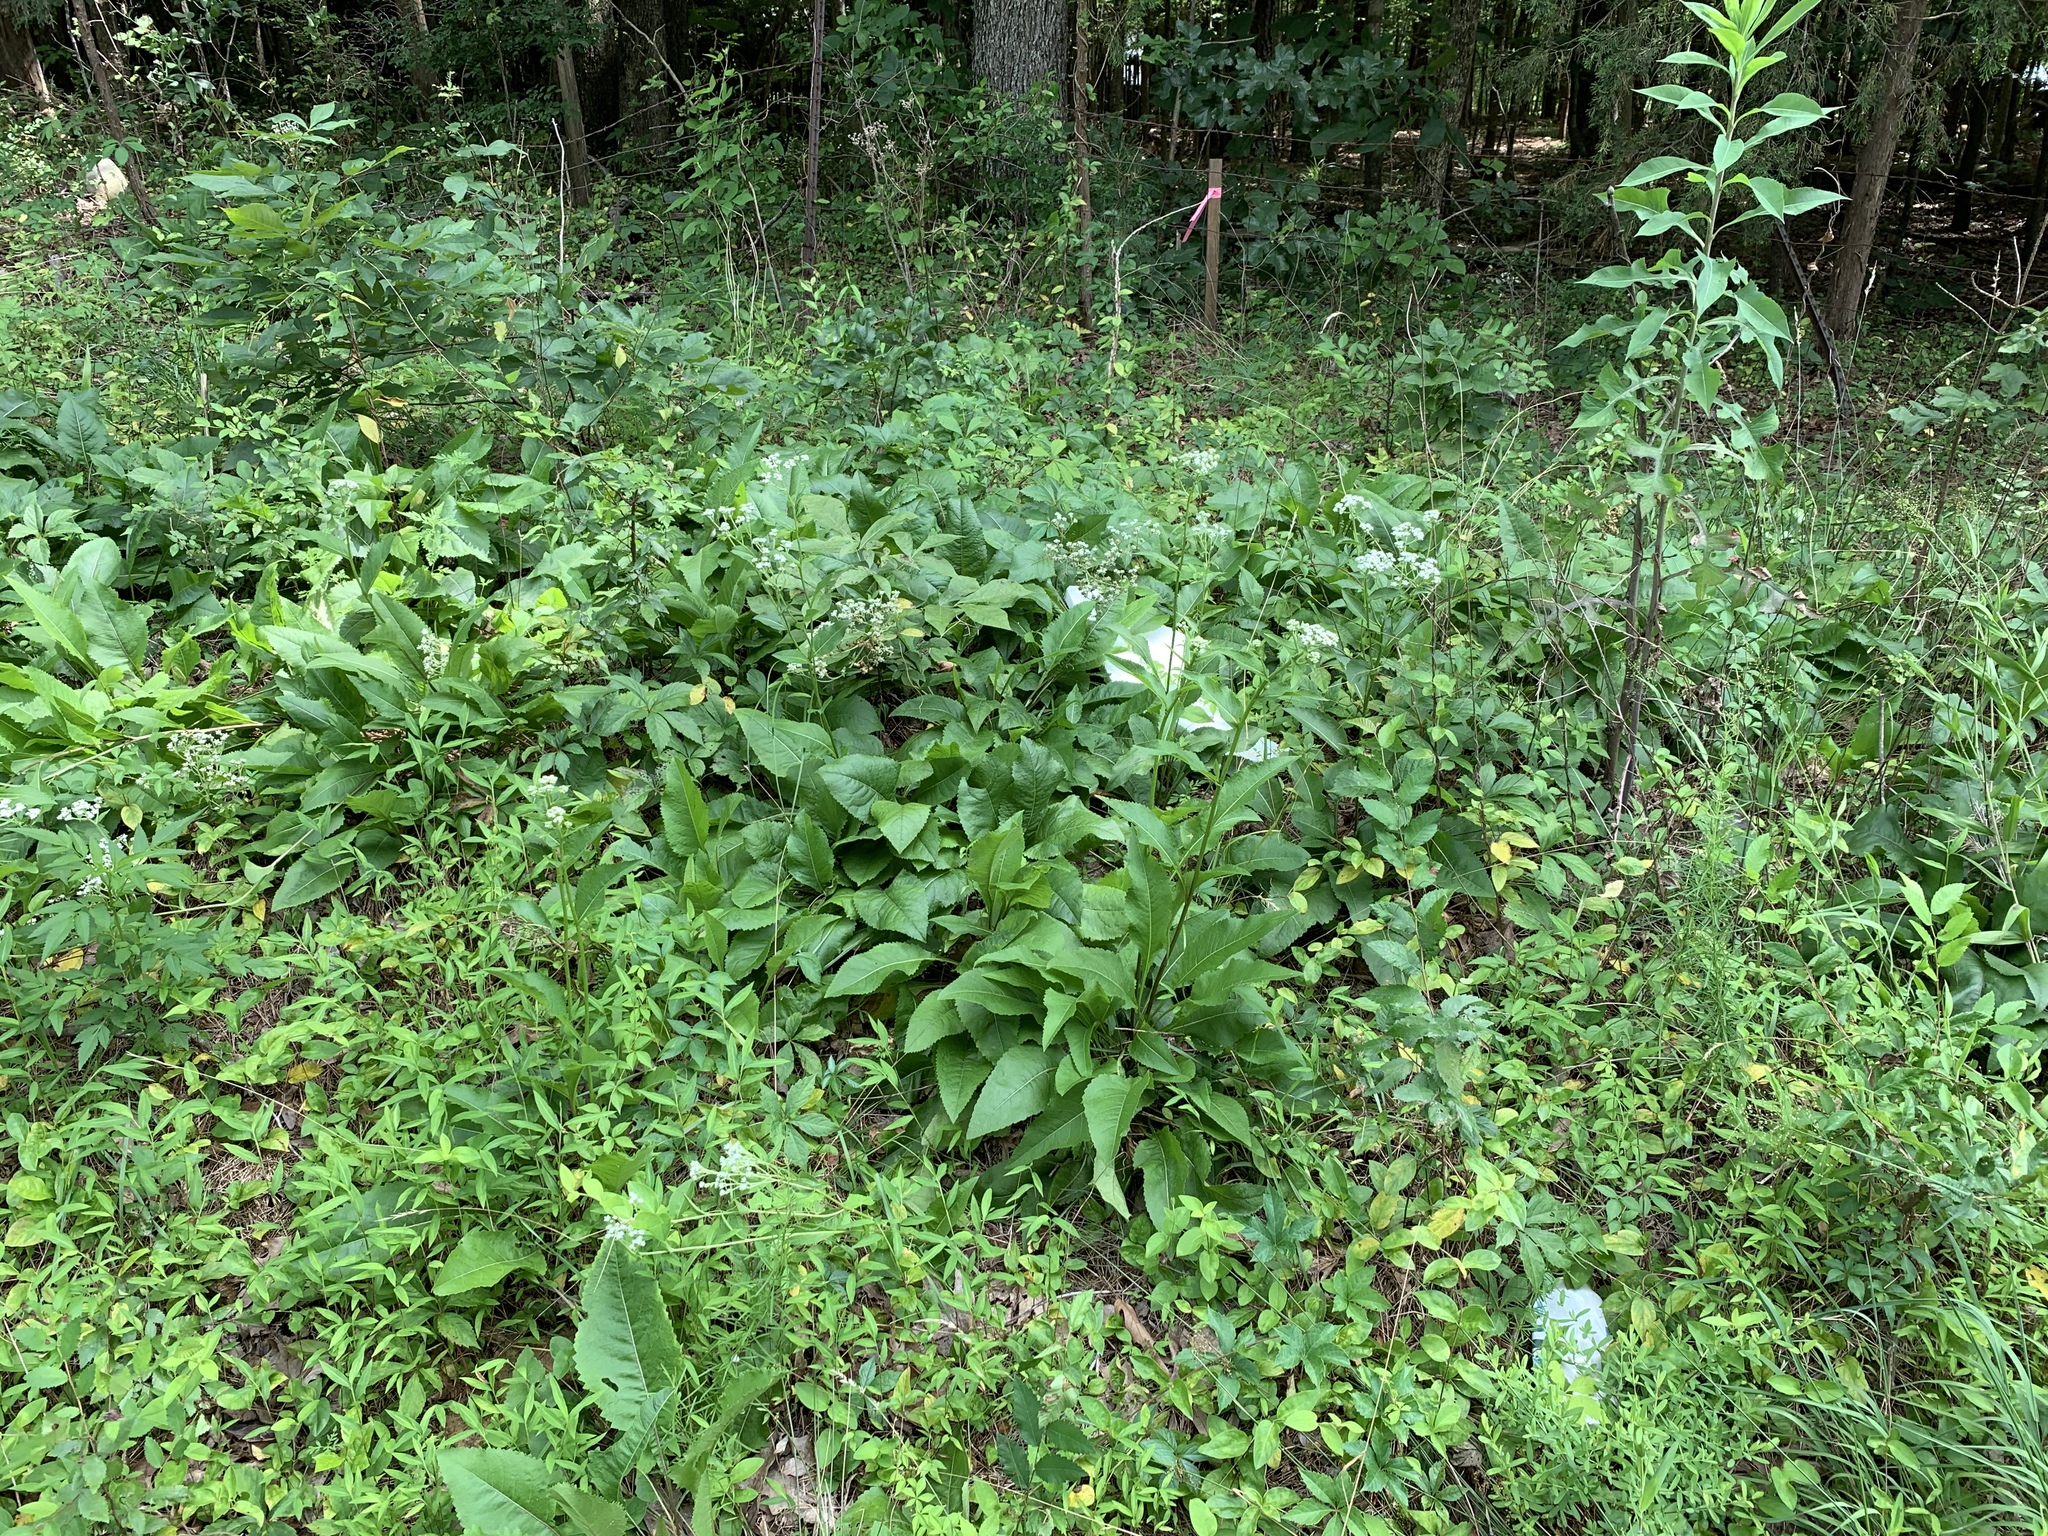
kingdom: Plantae
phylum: Tracheophyta
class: Magnoliopsida
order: Asterales
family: Asteraceae
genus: Parthenium
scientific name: Parthenium integrifolium
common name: American feverfew
